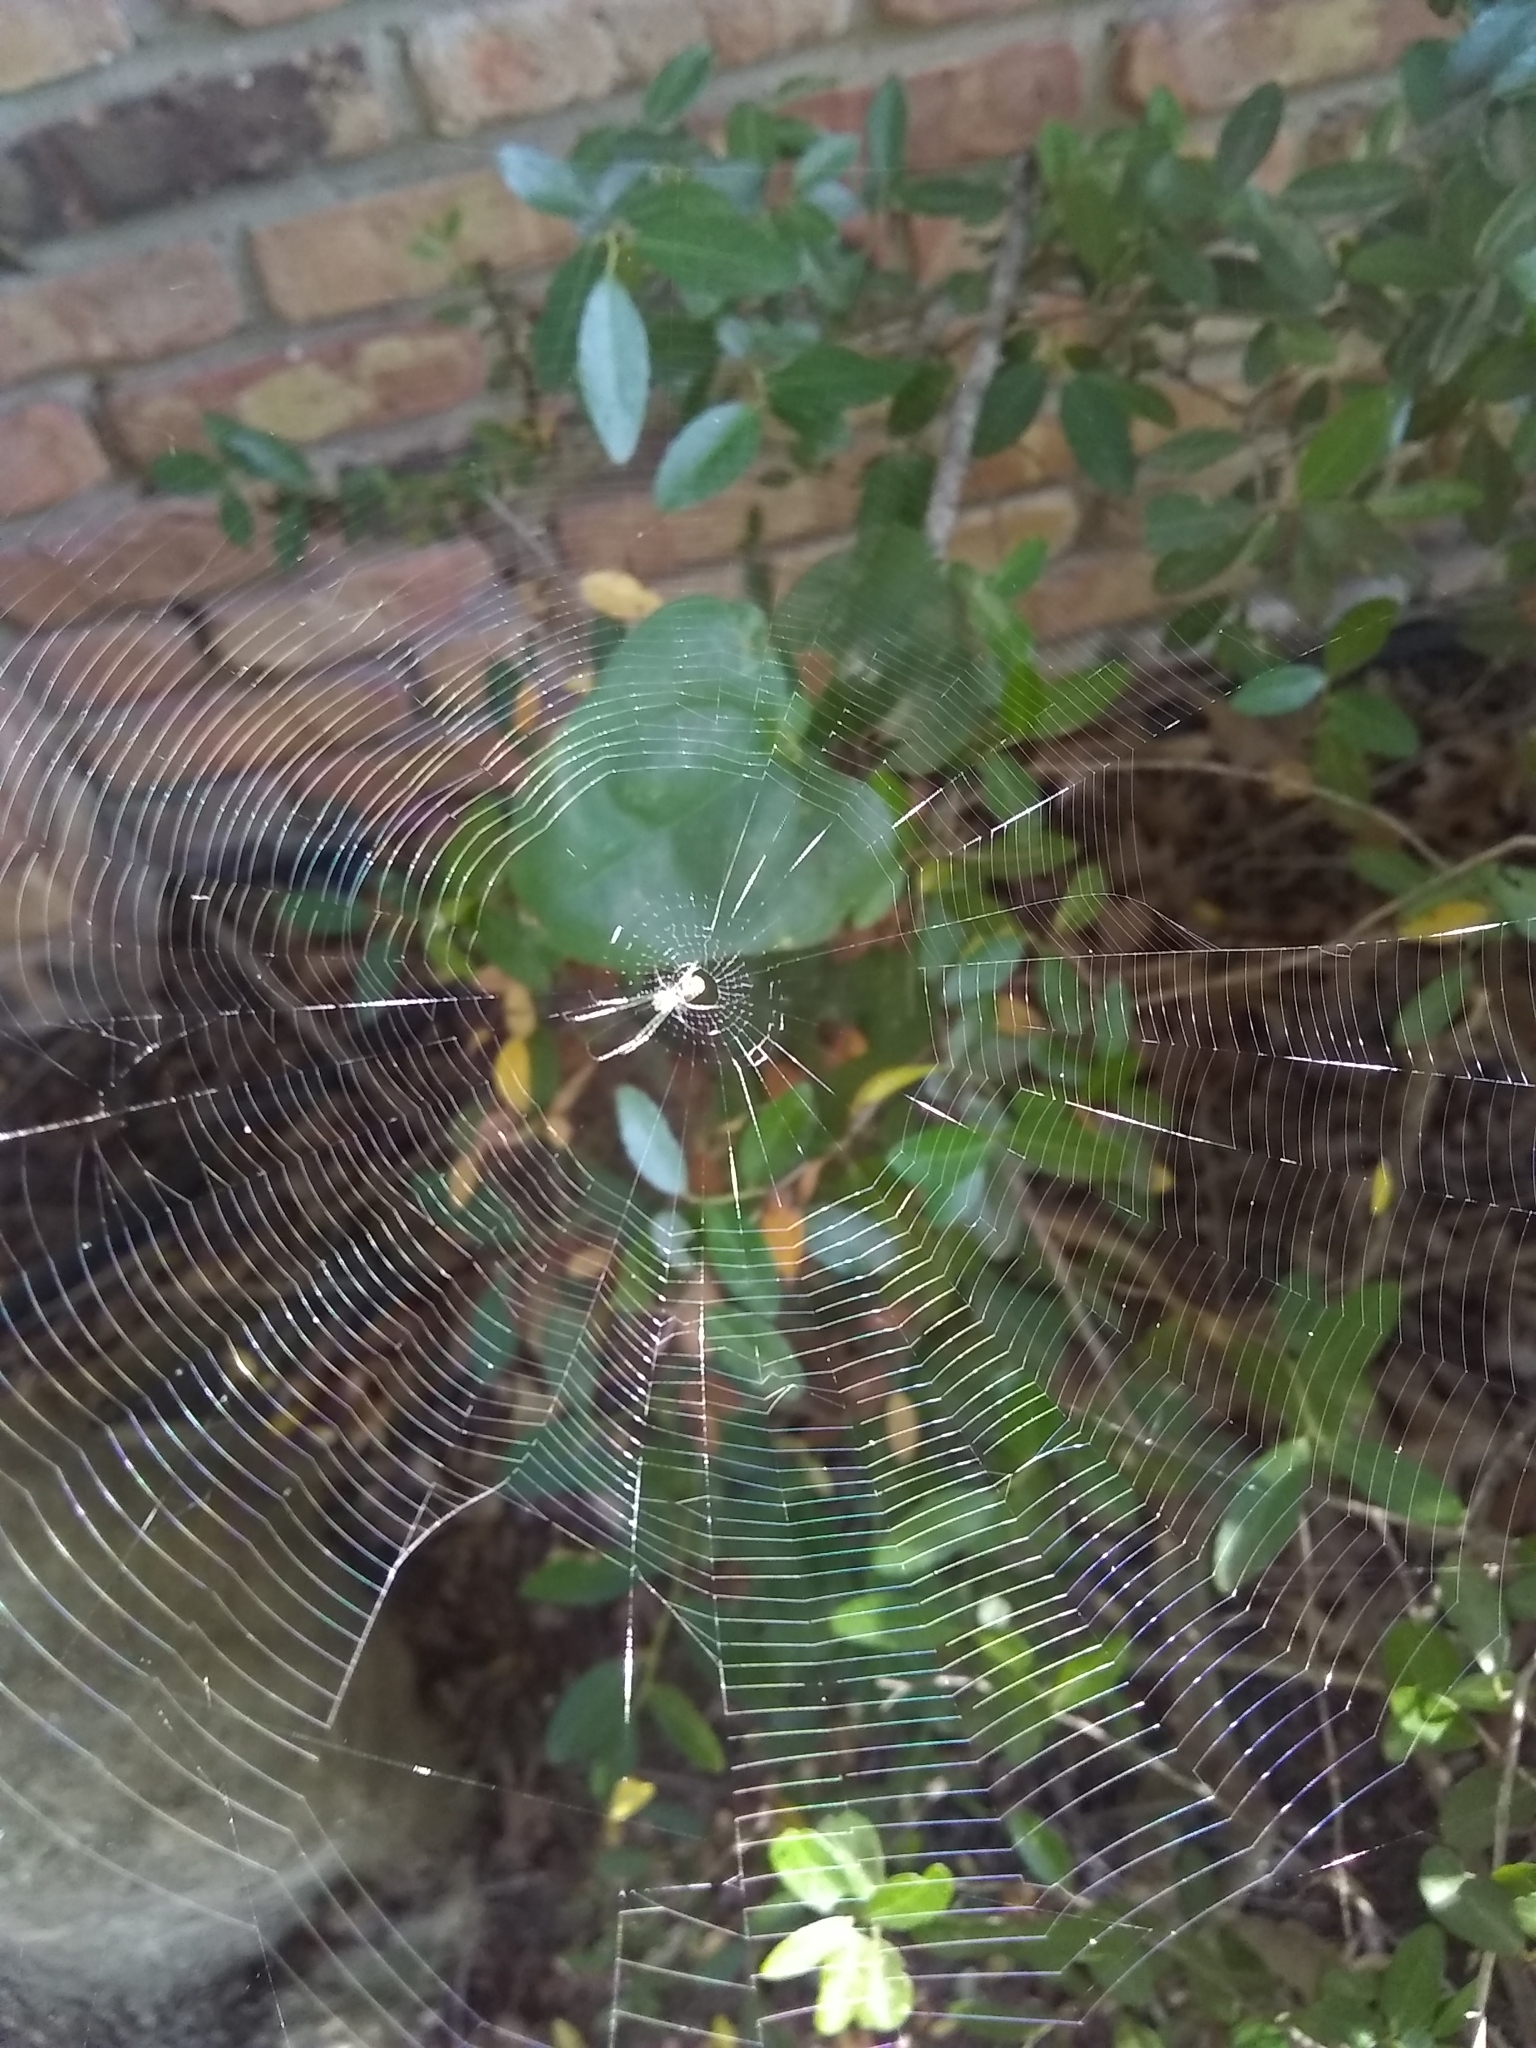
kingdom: Animalia
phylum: Arthropoda
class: Arachnida
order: Araneae
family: Tetragnathidae
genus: Leucauge
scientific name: Leucauge
